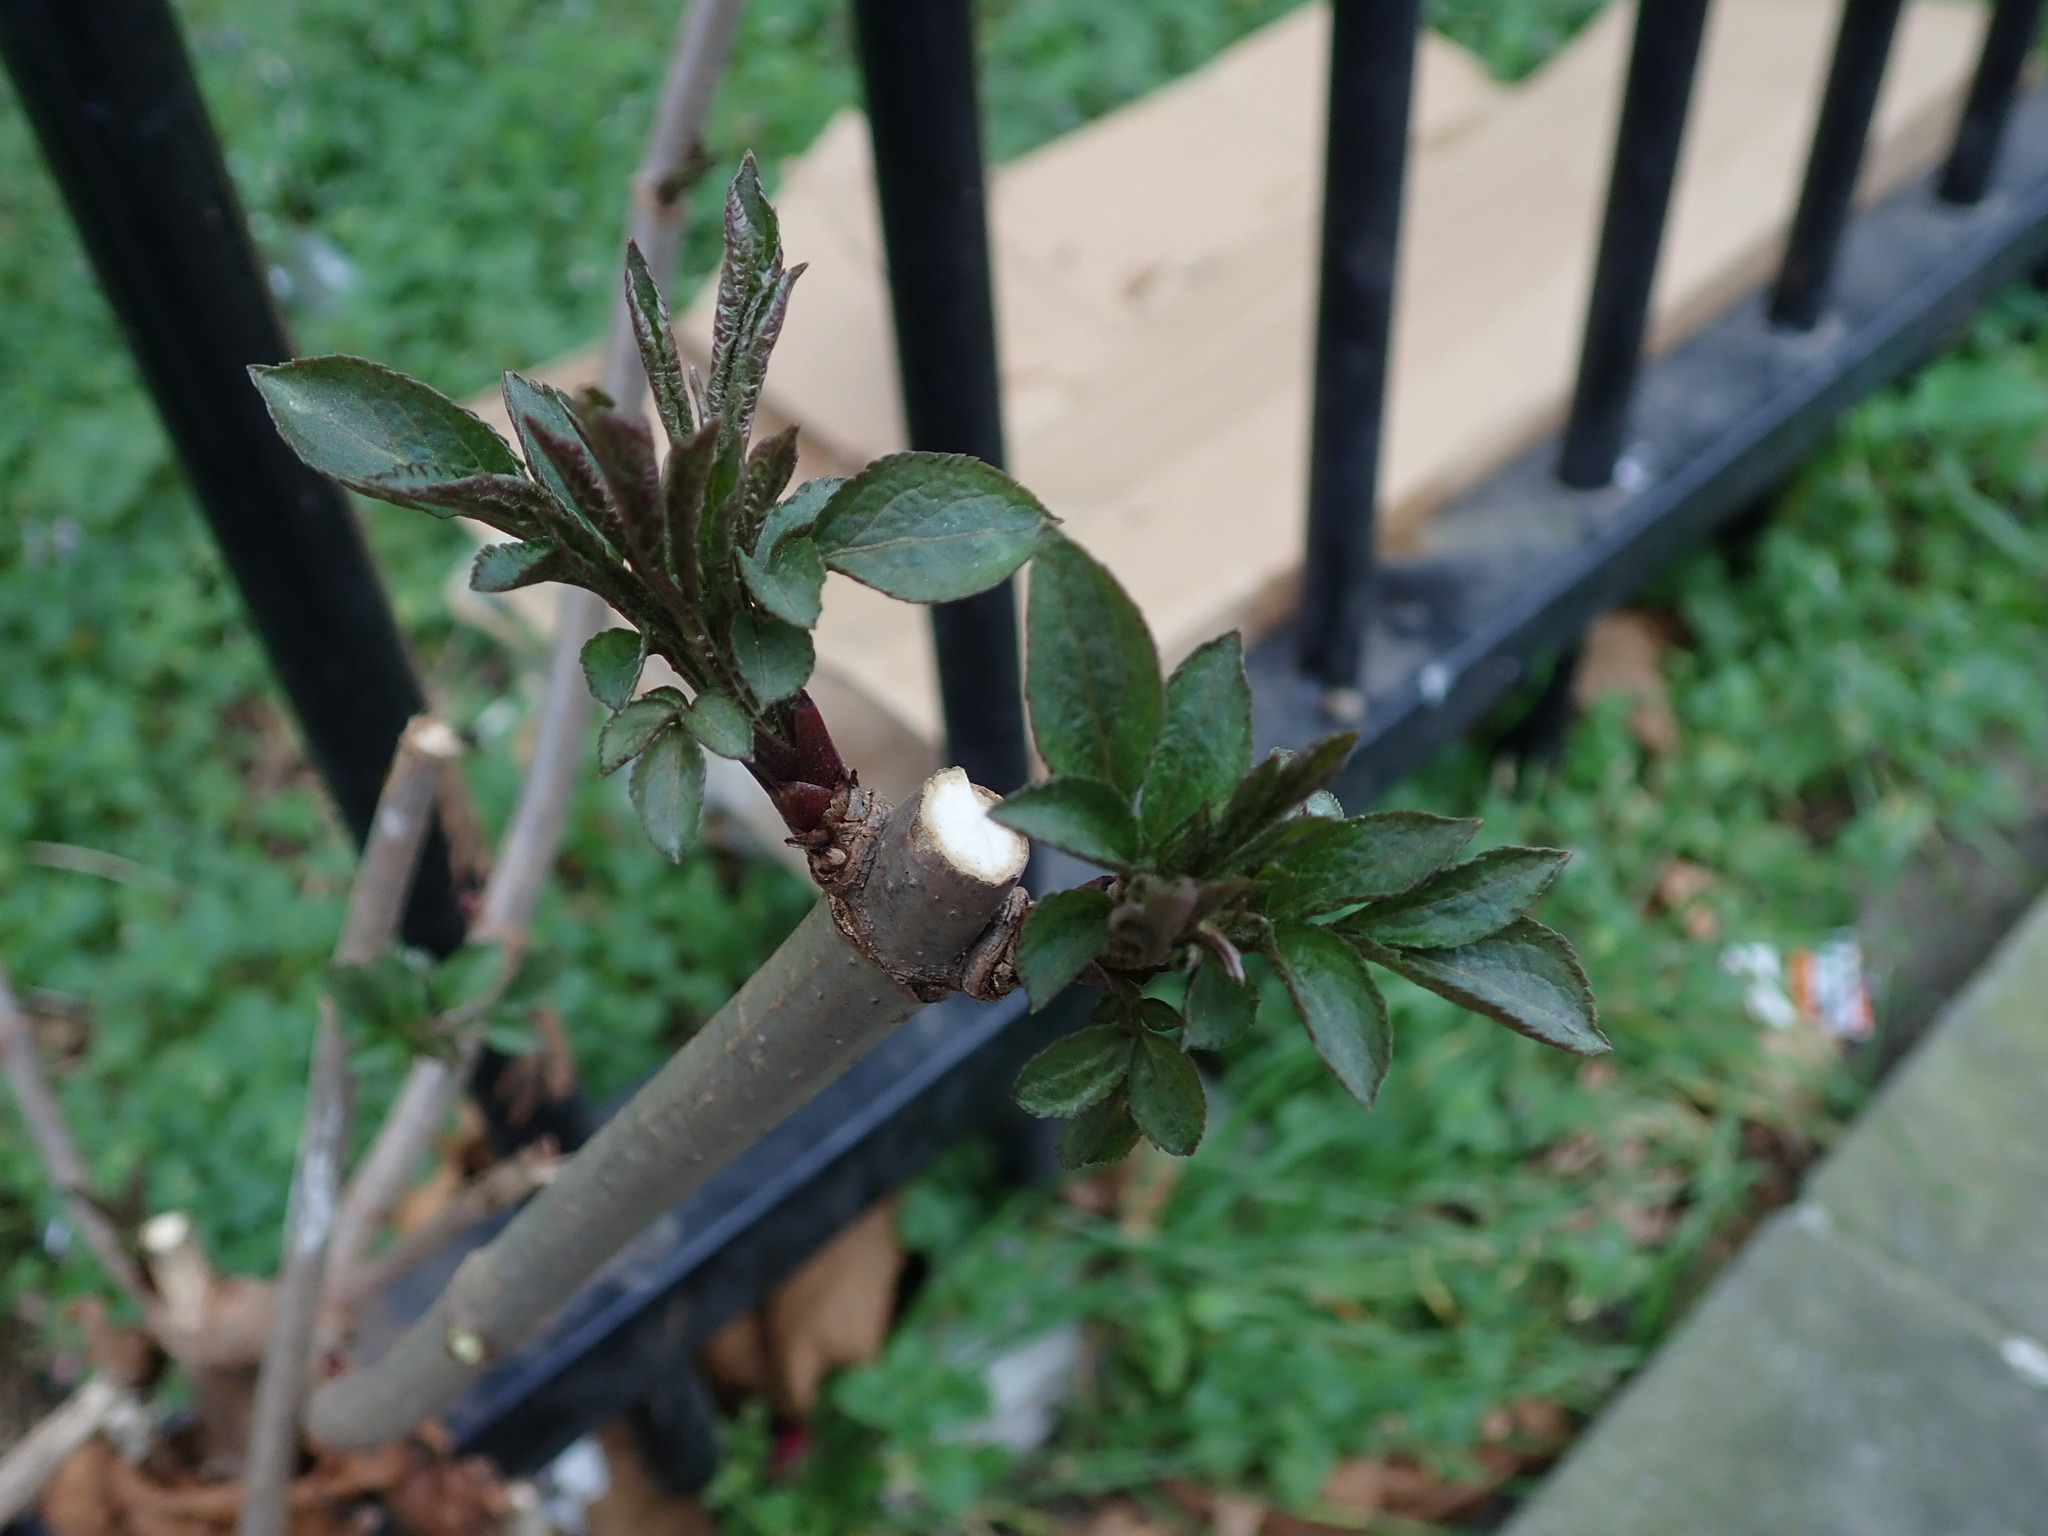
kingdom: Plantae
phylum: Tracheophyta
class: Magnoliopsida
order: Dipsacales
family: Viburnaceae
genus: Sambucus
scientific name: Sambucus nigra
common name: Elder
